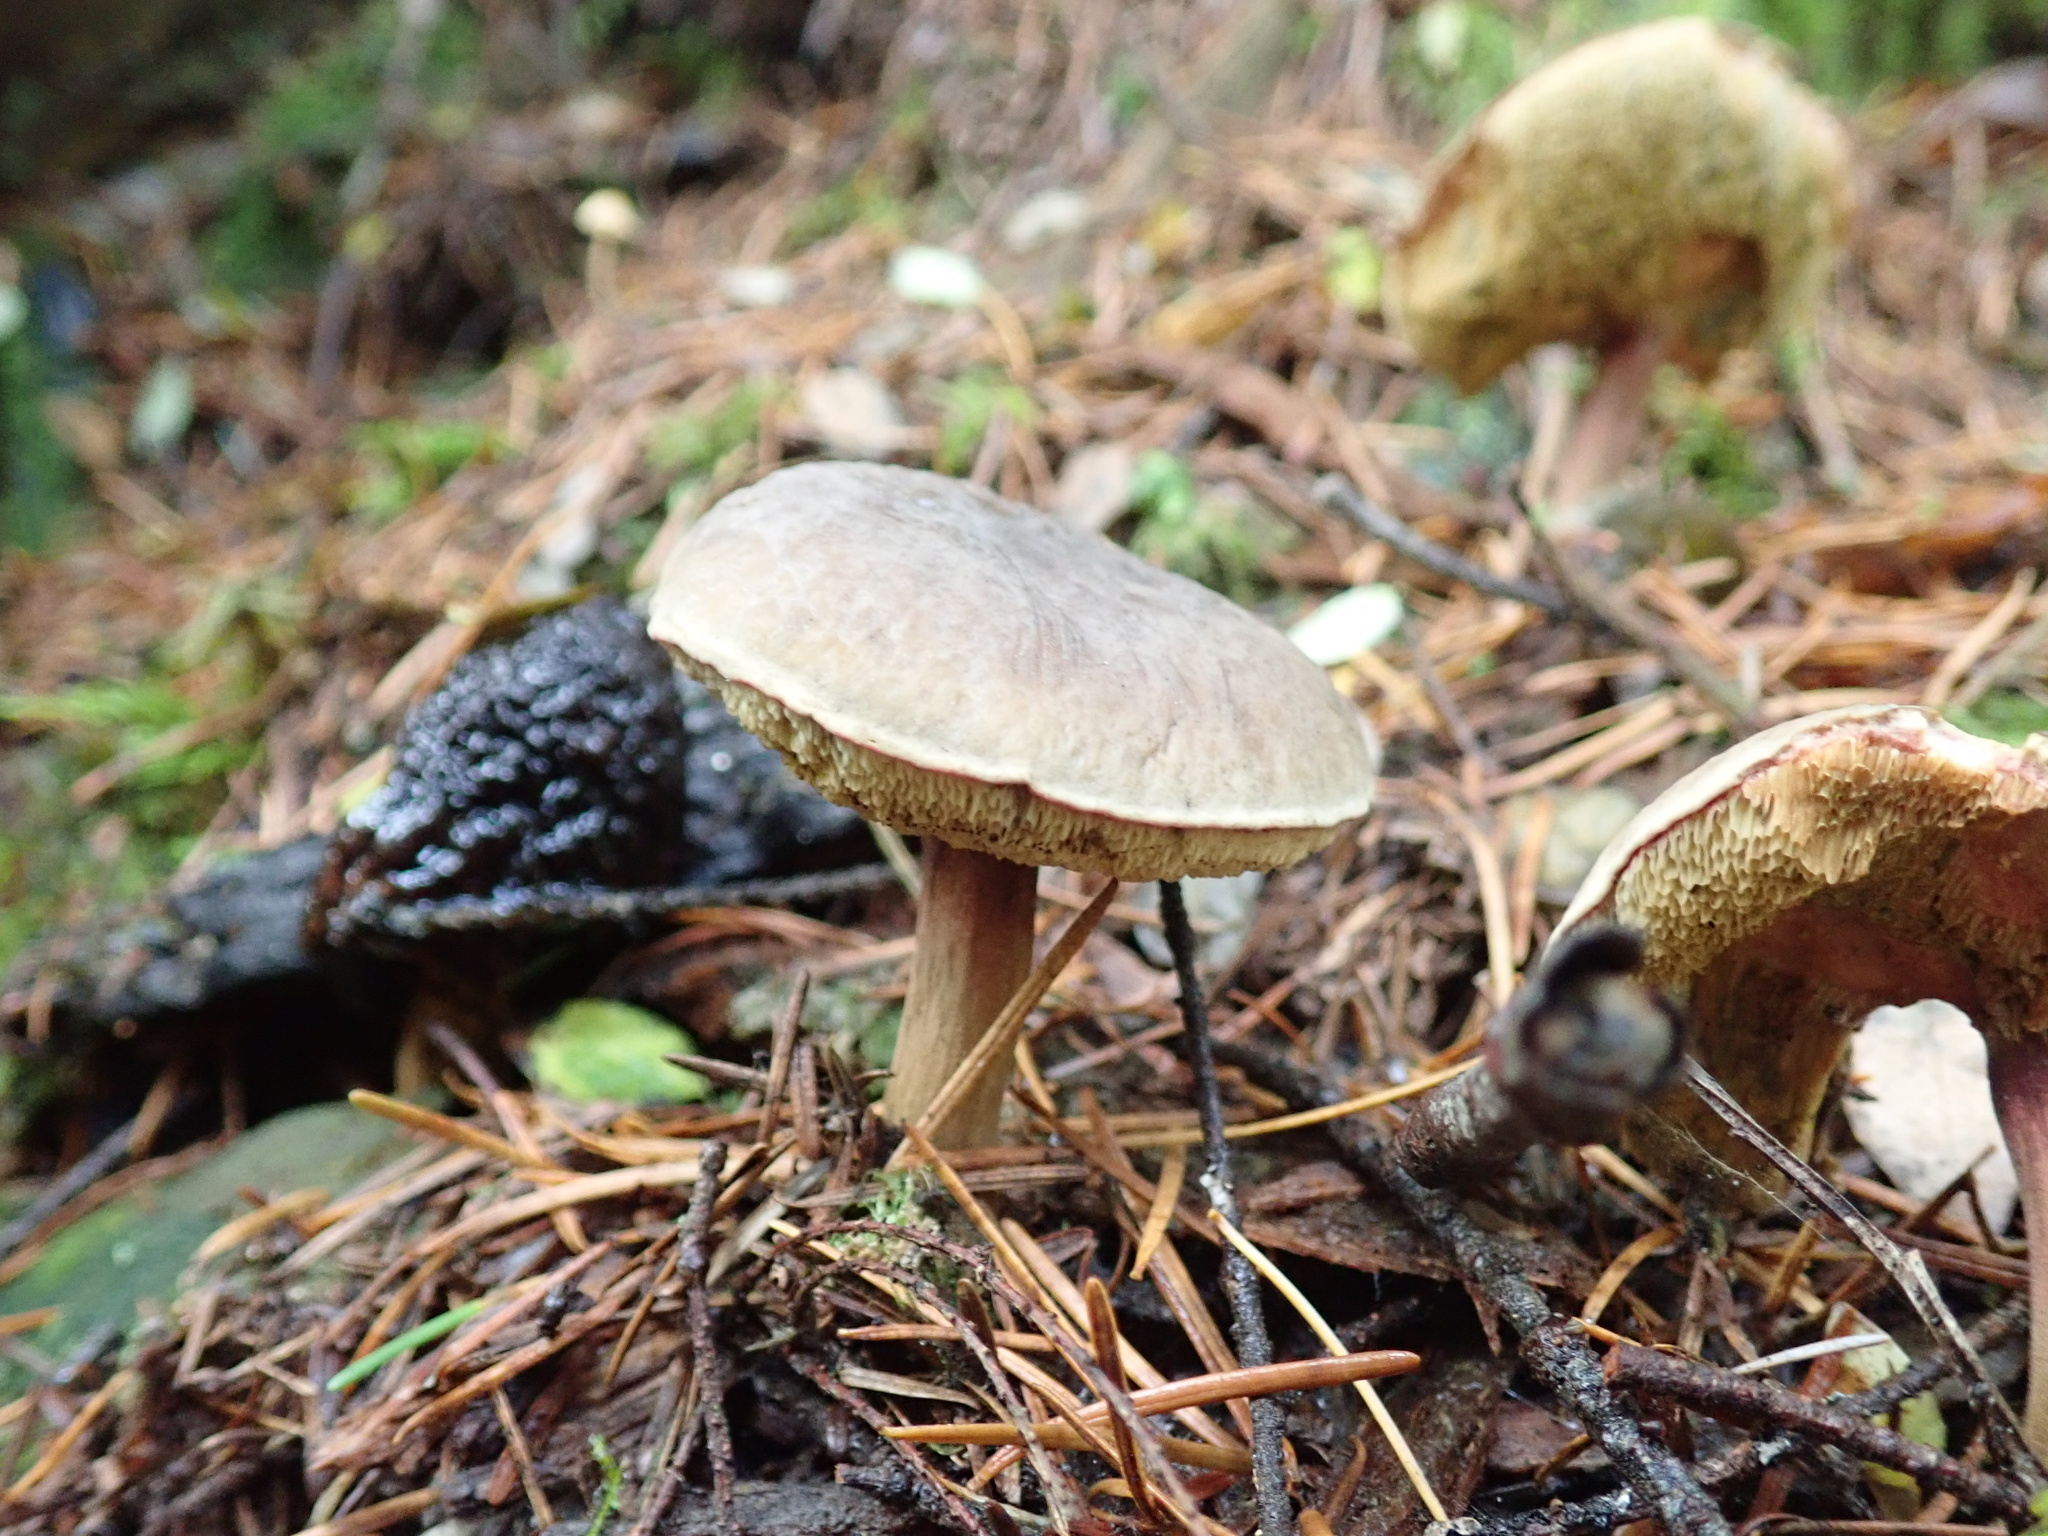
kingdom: Fungi
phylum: Basidiomycota
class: Agaricomycetes
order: Boletales
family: Boletaceae
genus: Xerocomellus
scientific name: Xerocomellus diffractus
